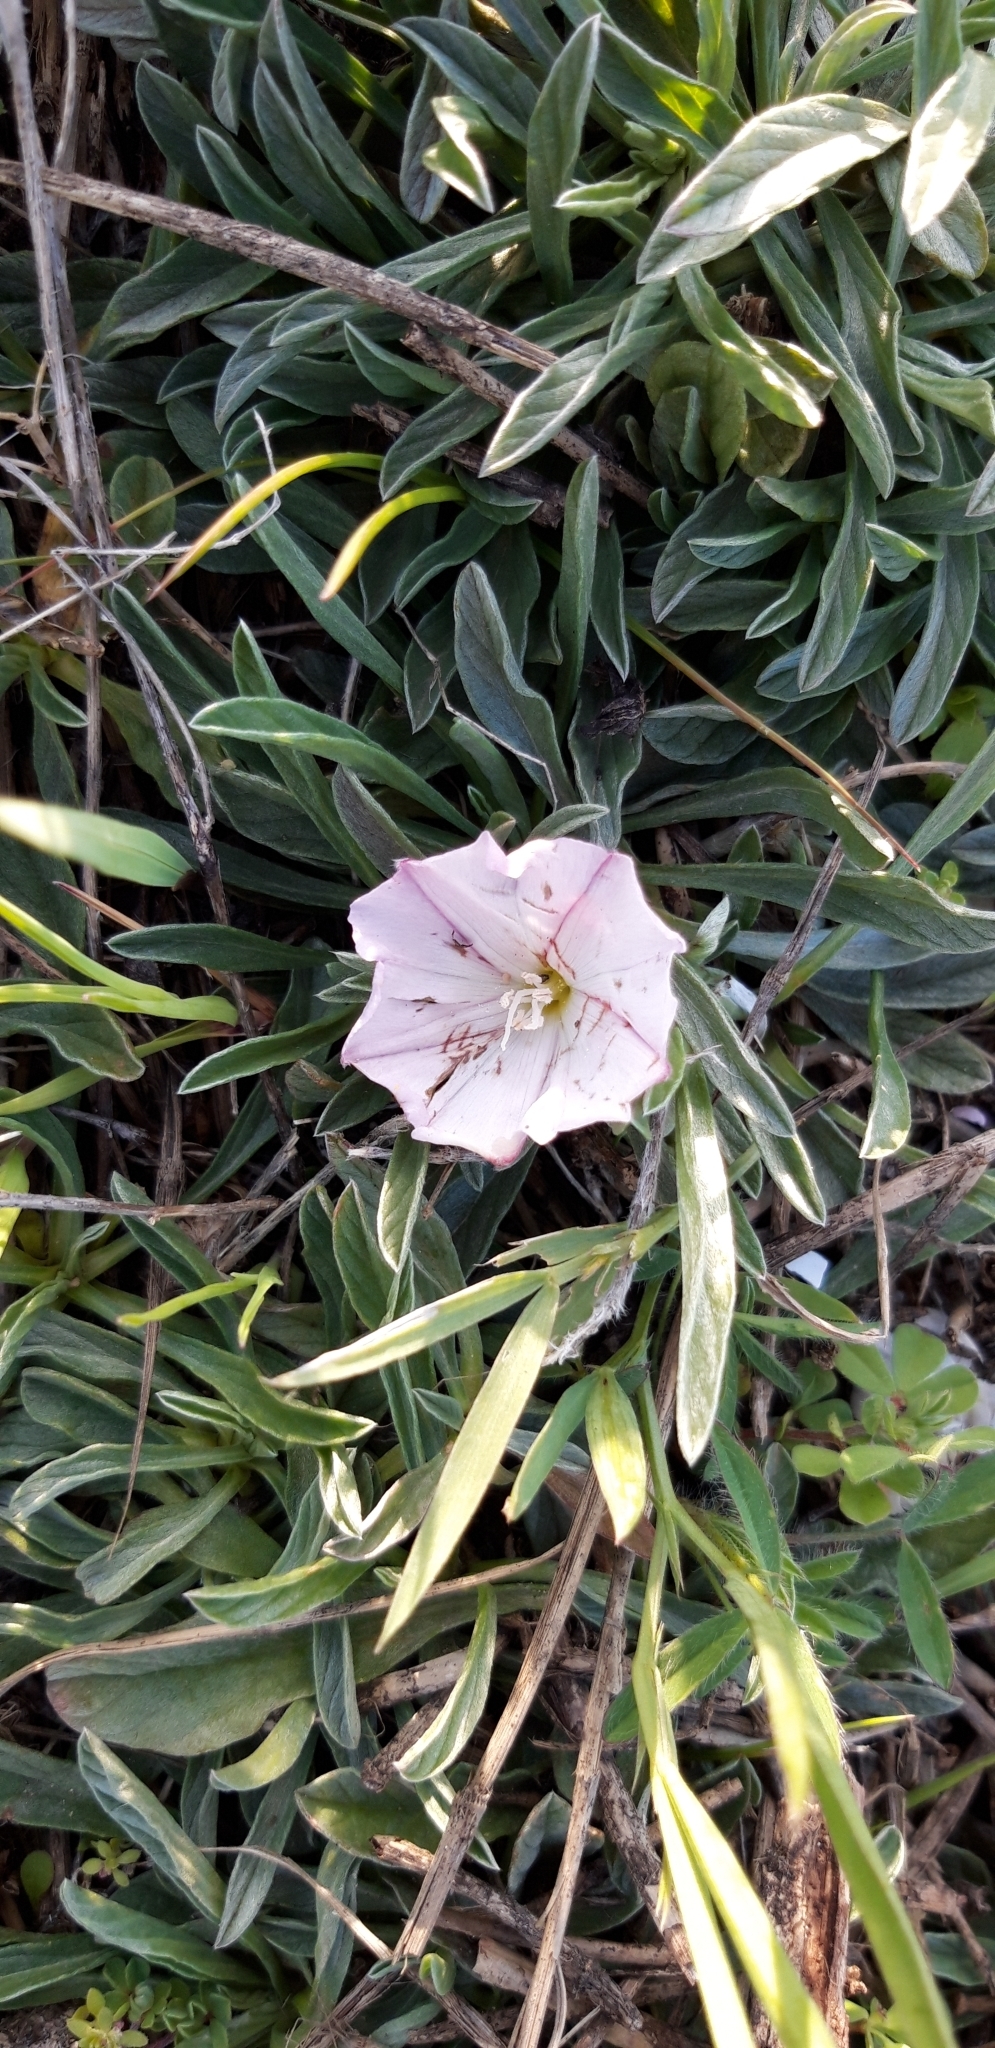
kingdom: Plantae
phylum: Tracheophyta
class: Magnoliopsida
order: Solanales
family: Convolvulaceae
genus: Convolvulus
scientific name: Convolvulus lineatus
